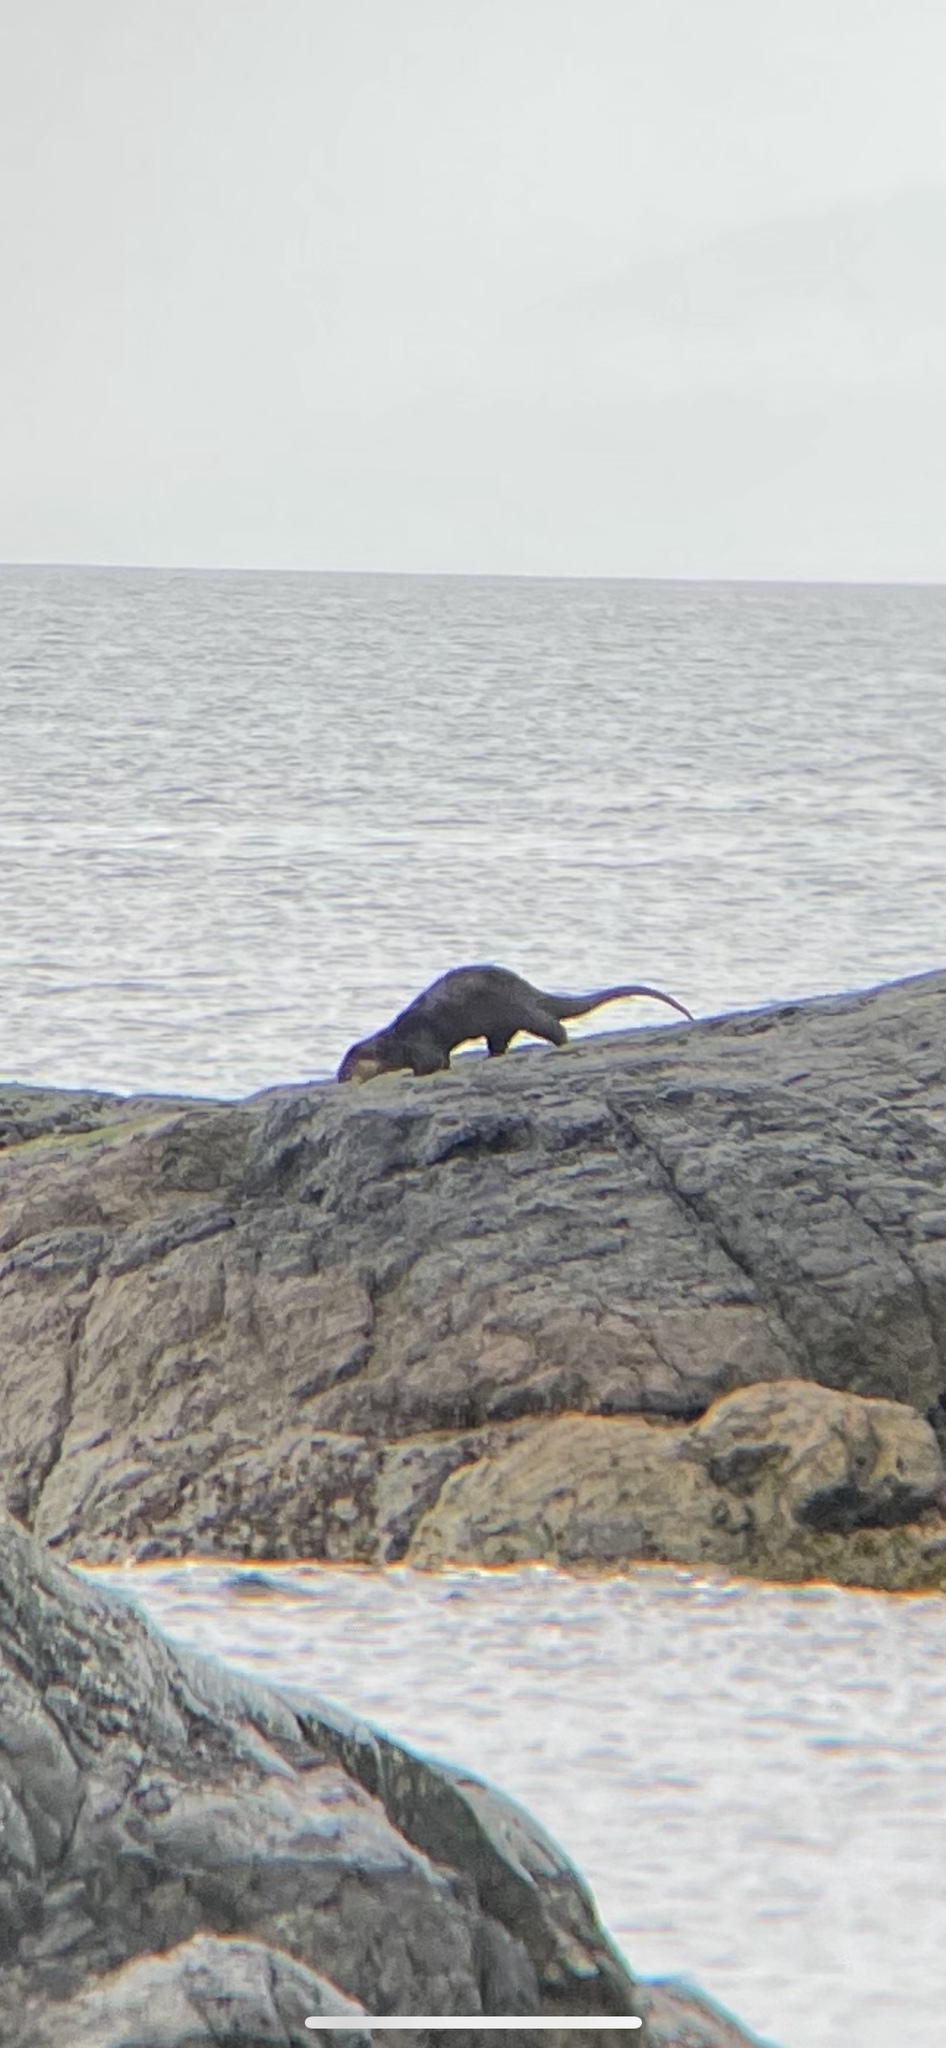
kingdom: Animalia
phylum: Chordata
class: Mammalia
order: Carnivora
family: Mustelidae
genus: Lontra
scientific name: Lontra canadensis
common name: North american river otter
